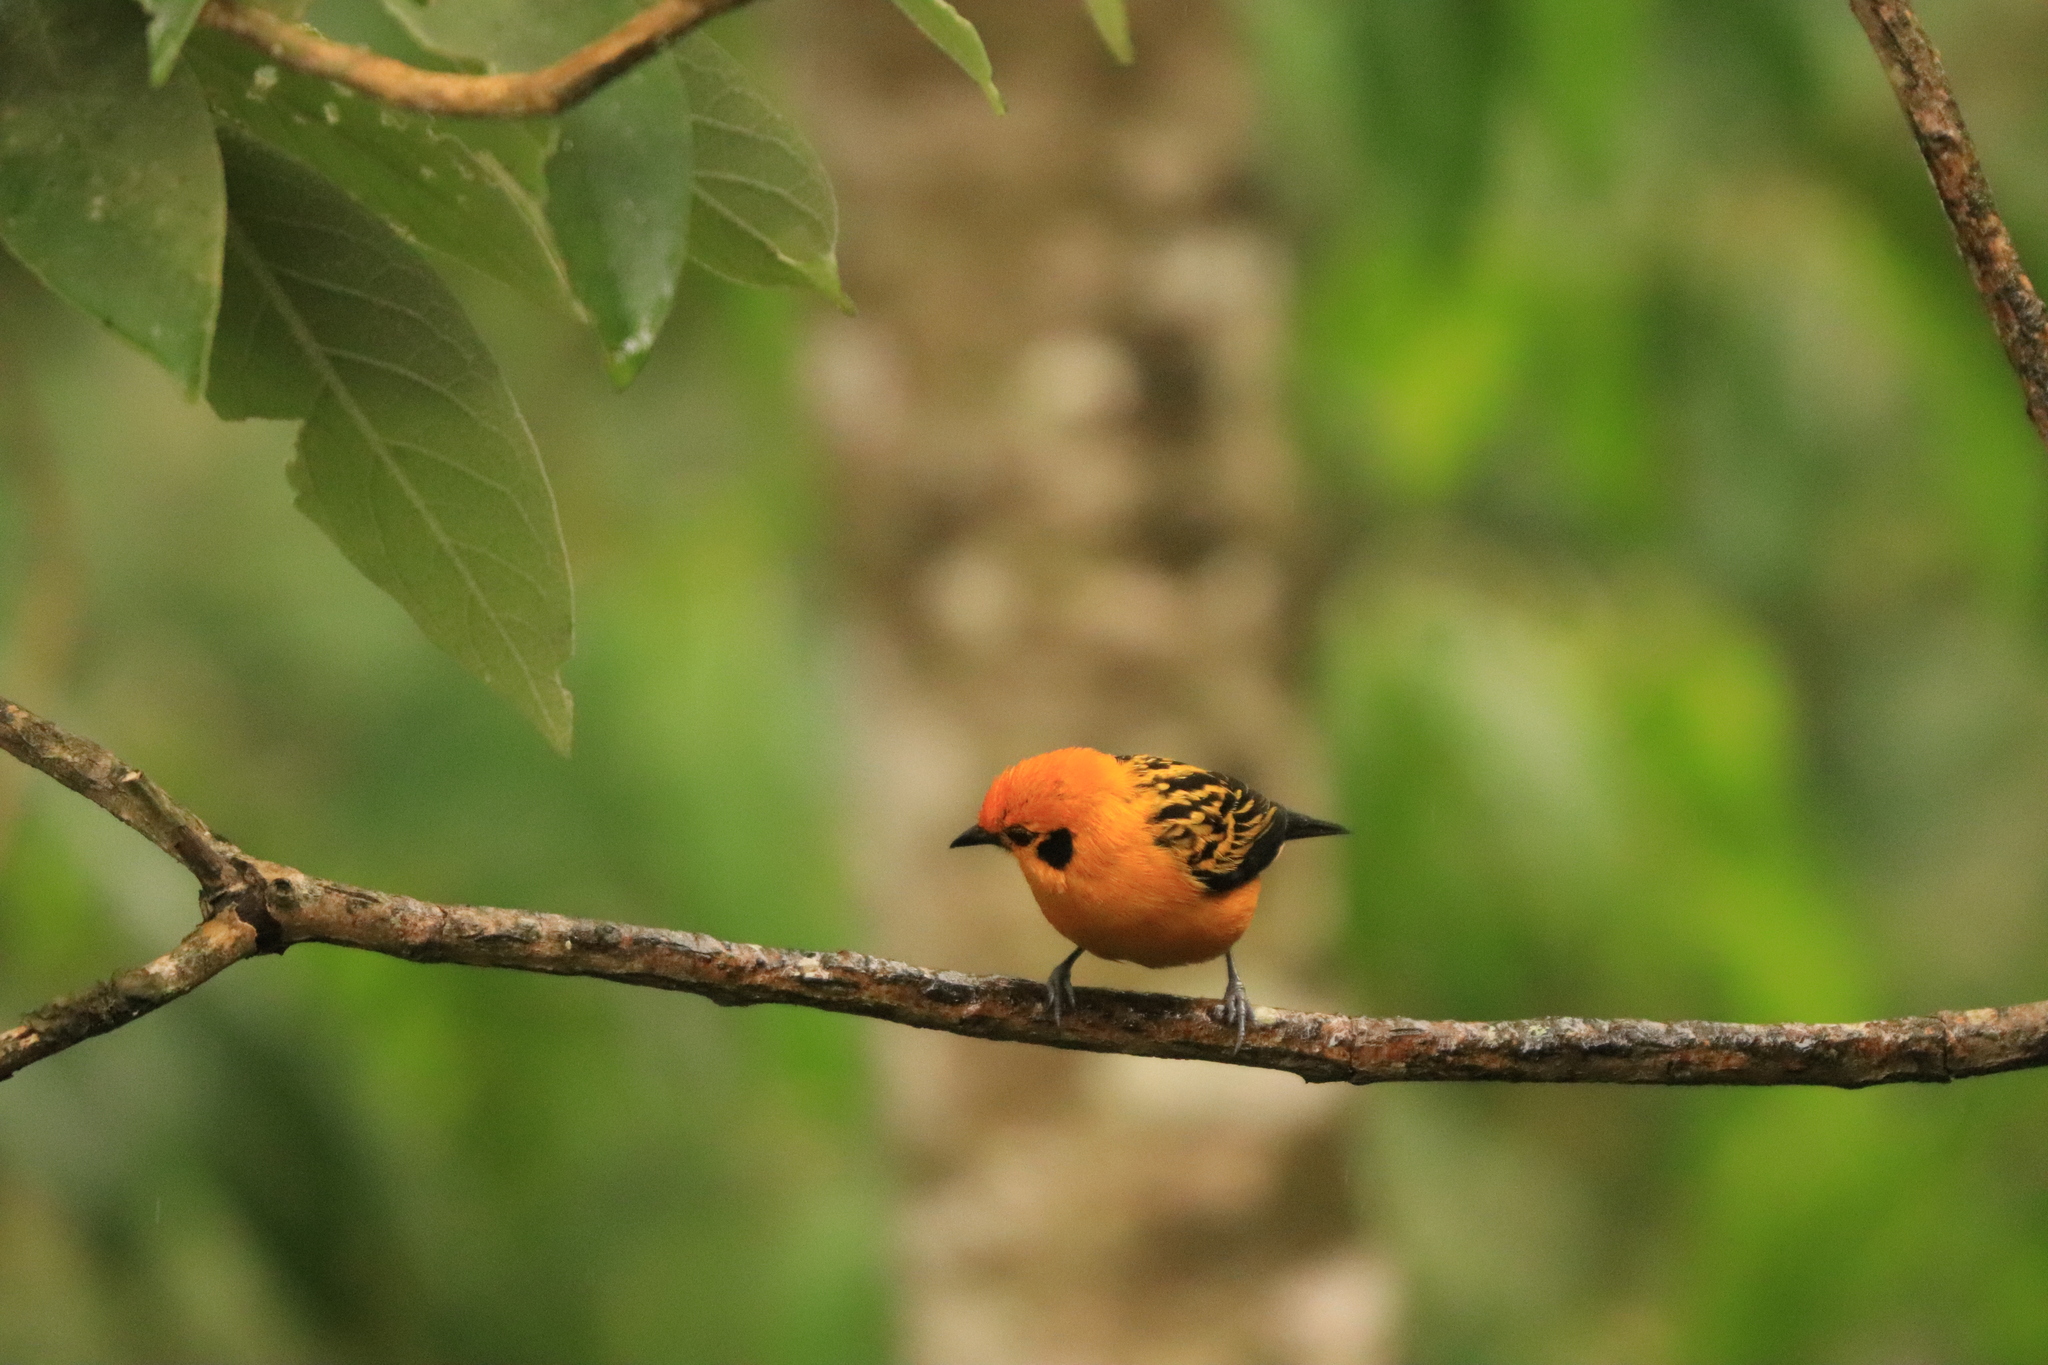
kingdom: Animalia
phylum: Chordata
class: Aves
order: Passeriformes
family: Thraupidae
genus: Tangara
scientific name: Tangara arthus
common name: Golden tanager
